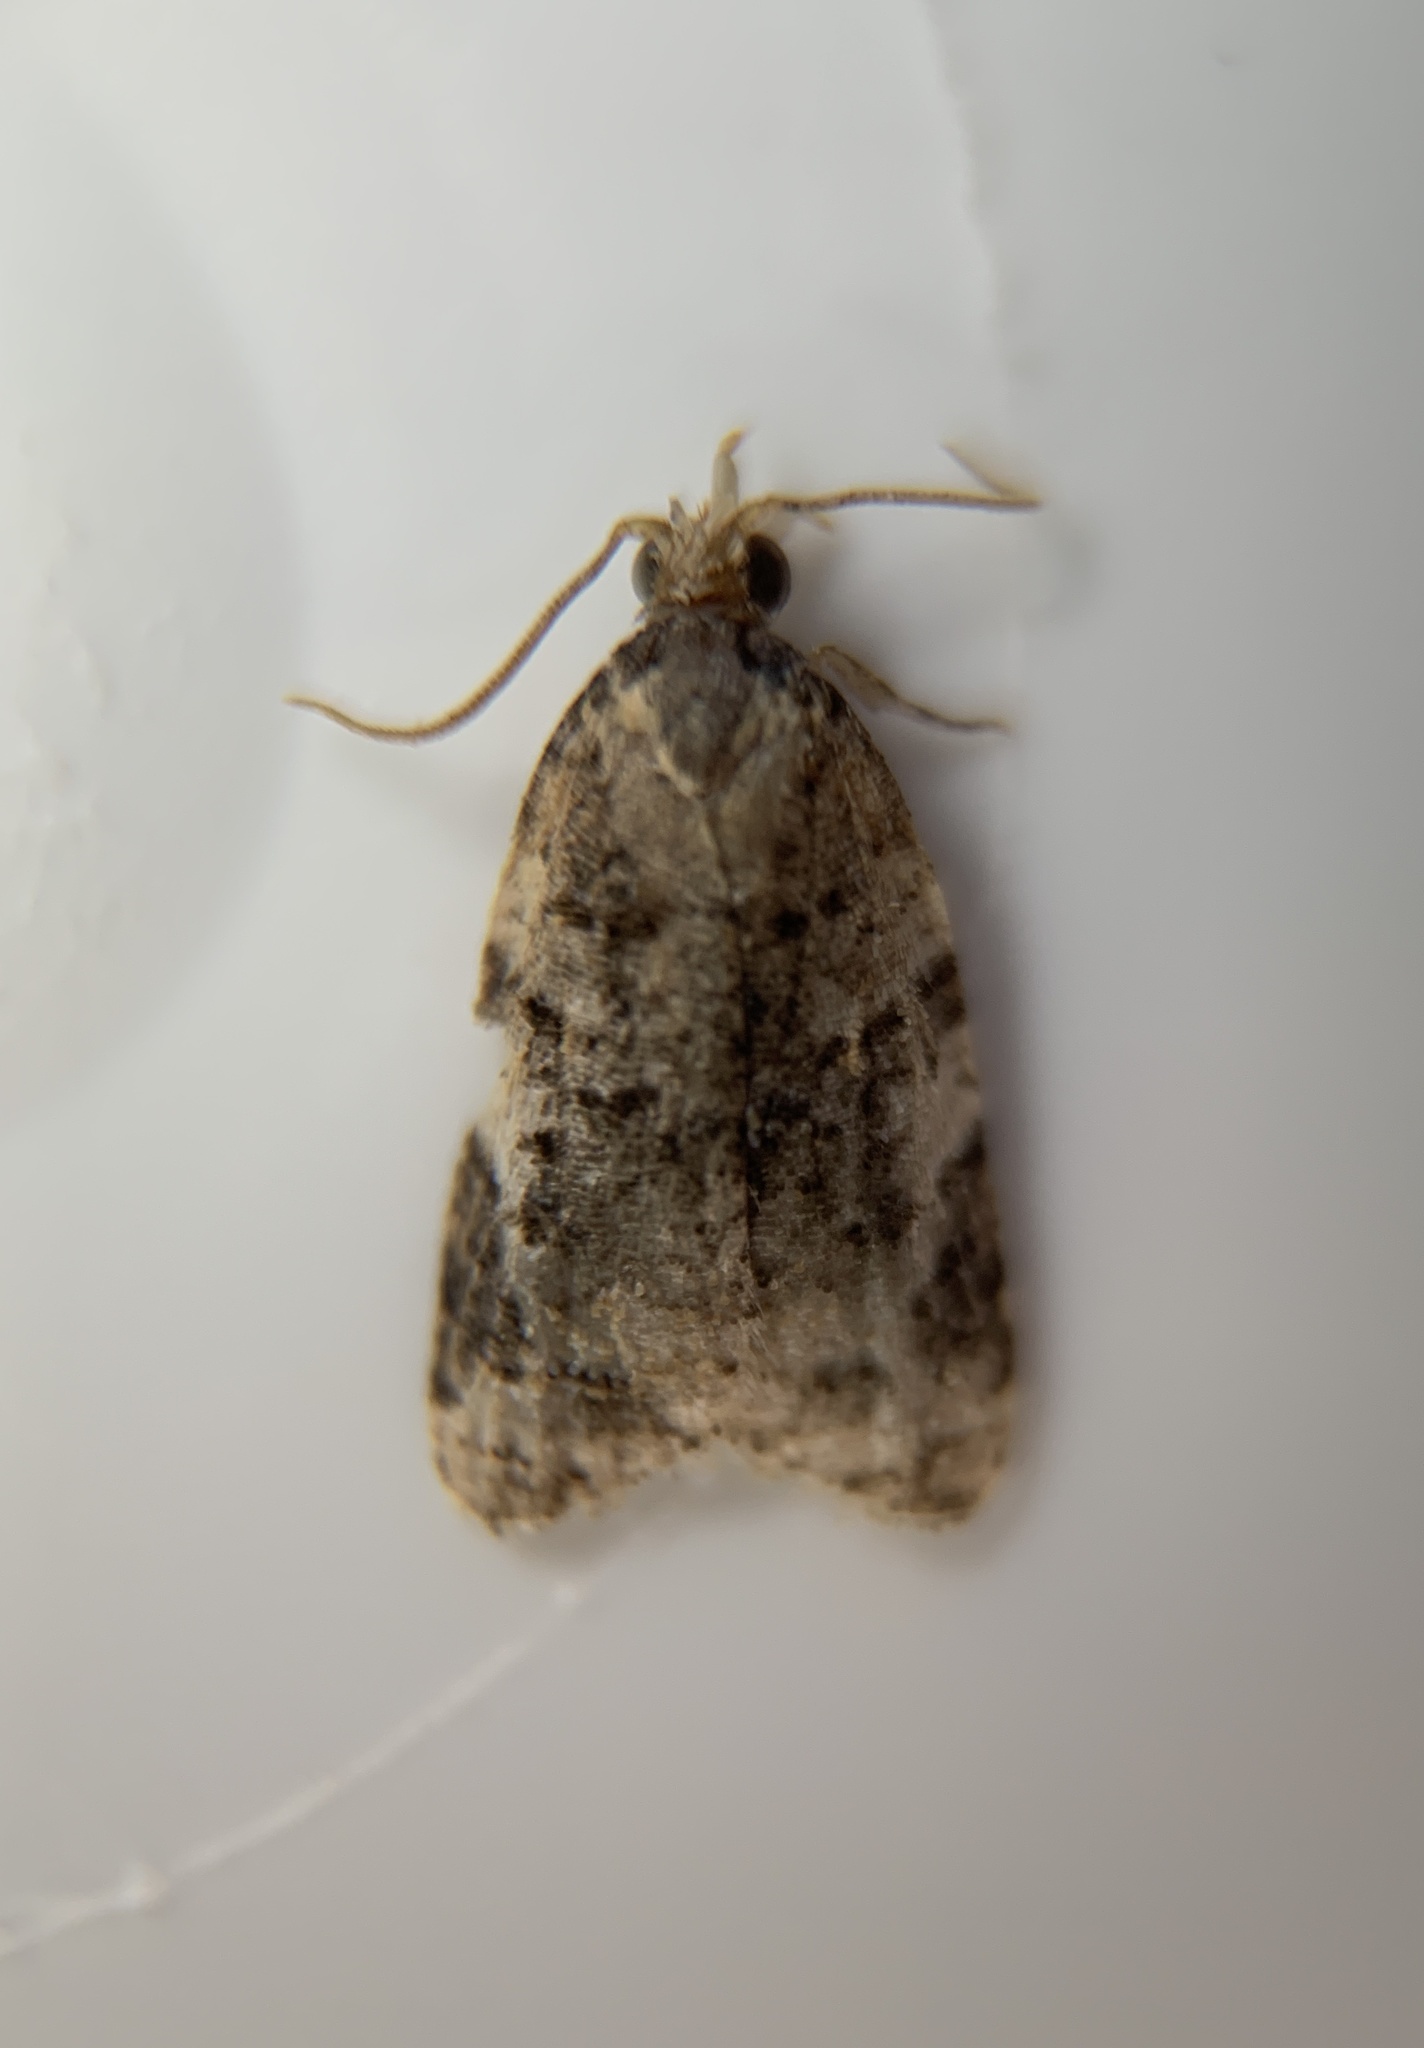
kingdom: Animalia
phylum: Arthropoda
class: Insecta
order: Lepidoptera
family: Tortricidae
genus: Platynota
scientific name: Platynota exasperatana
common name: Exasperating platynota moth
